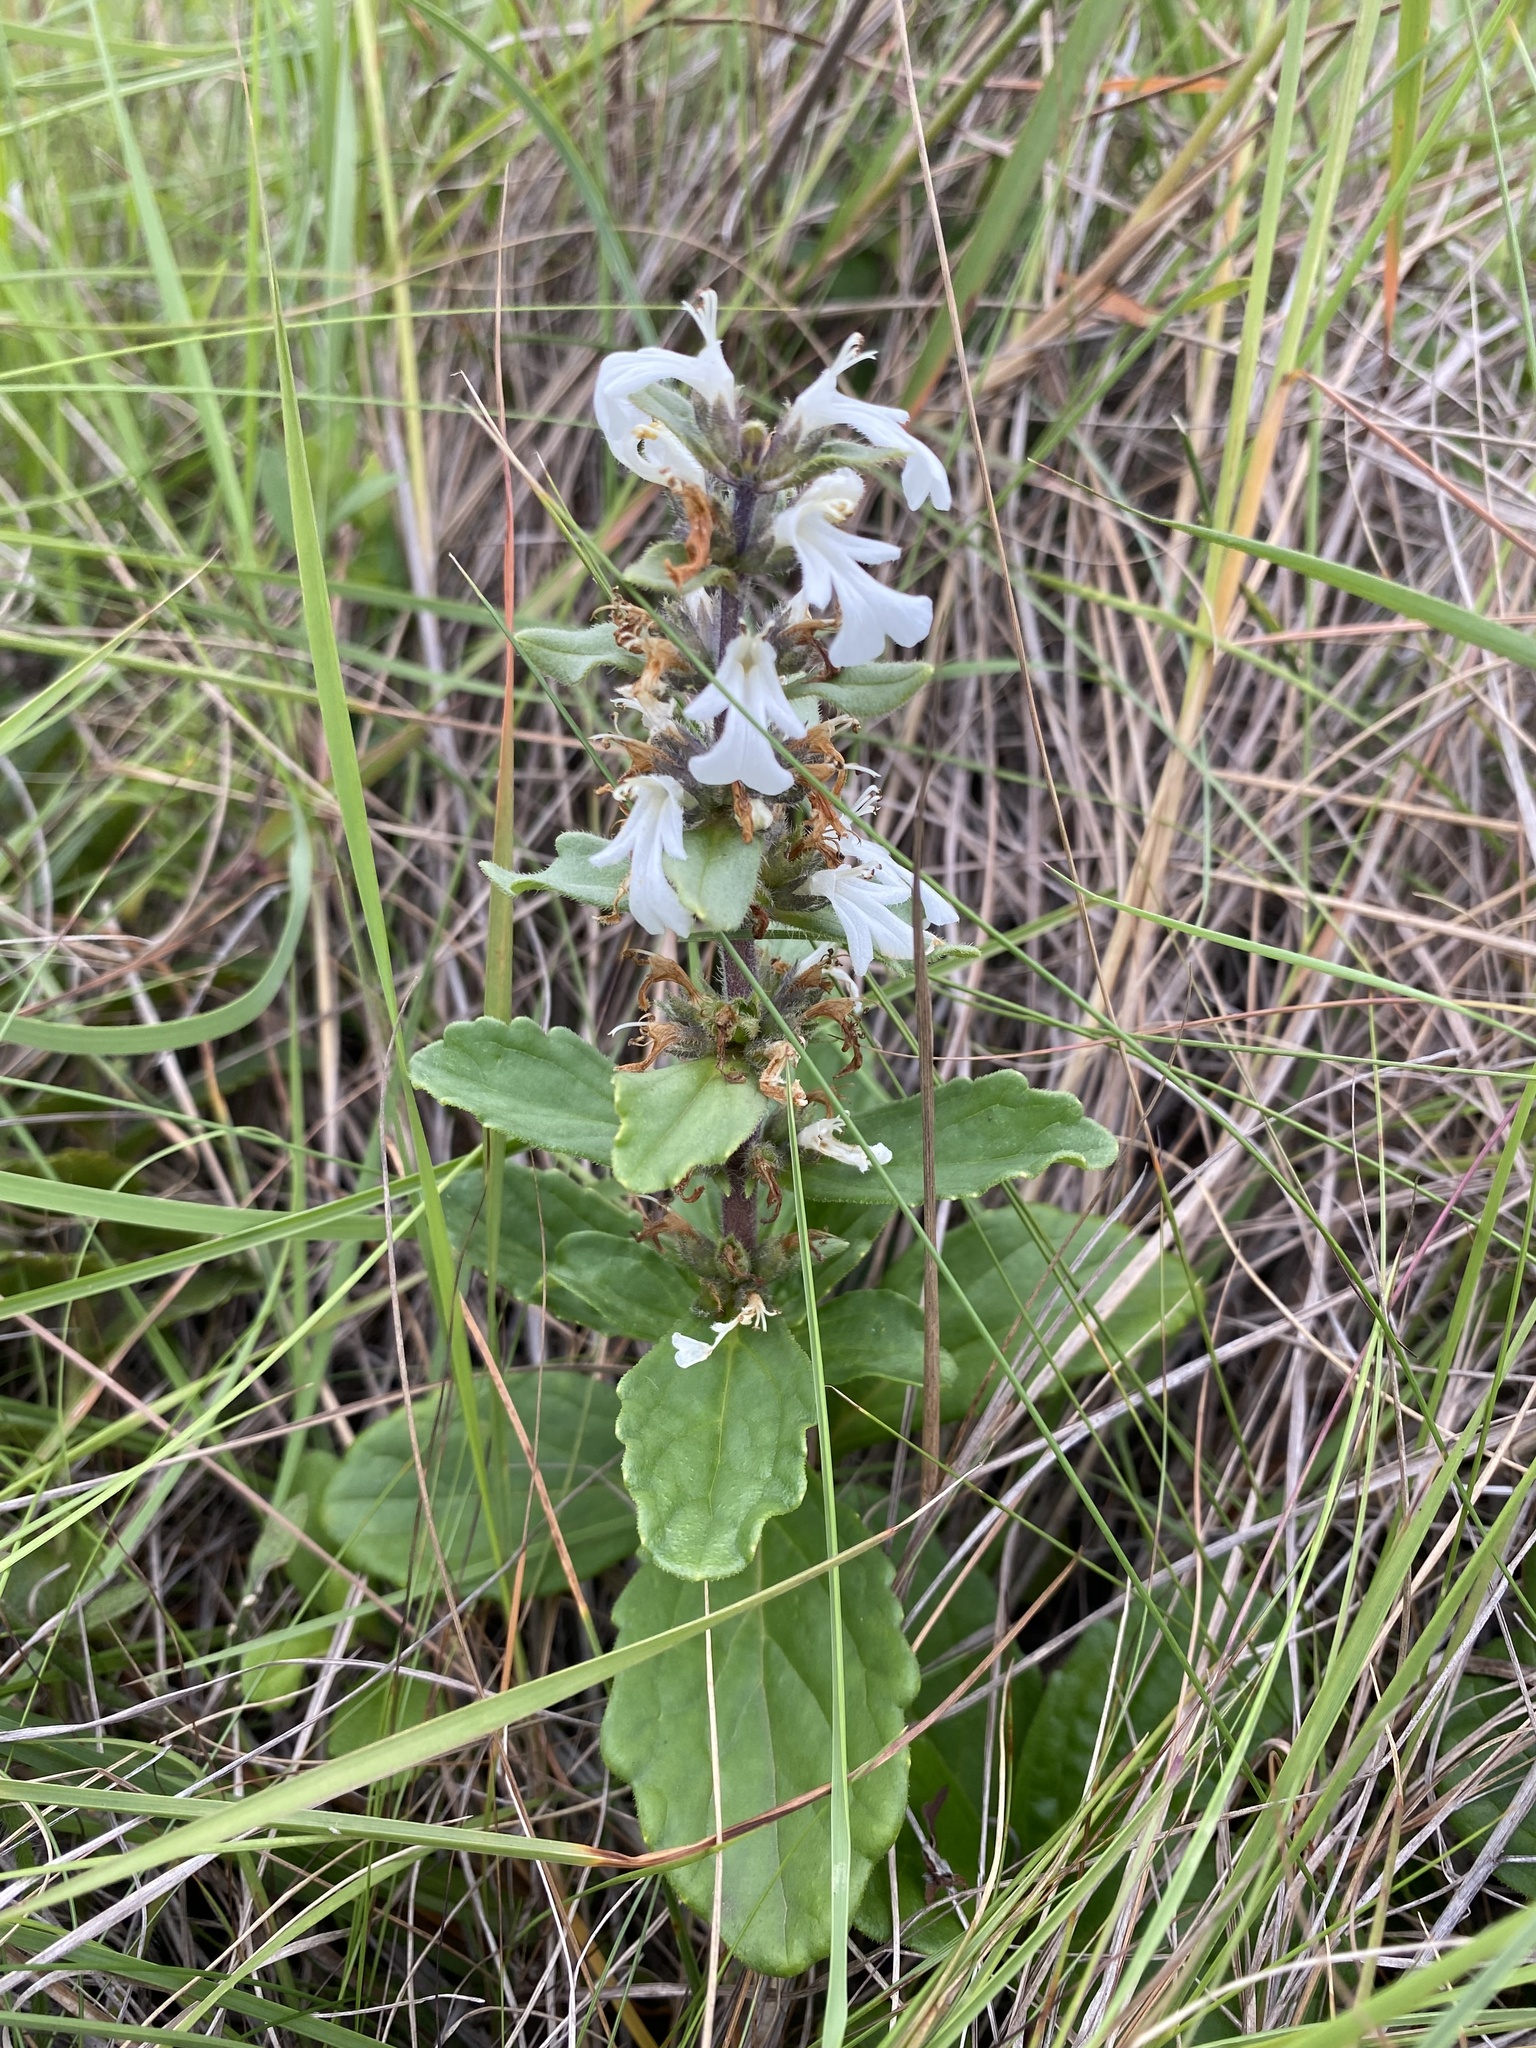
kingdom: Plantae
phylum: Tracheophyta
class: Magnoliopsida
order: Lamiales
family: Lamiaceae
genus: Ajuga
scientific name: Ajuga ophrydis
